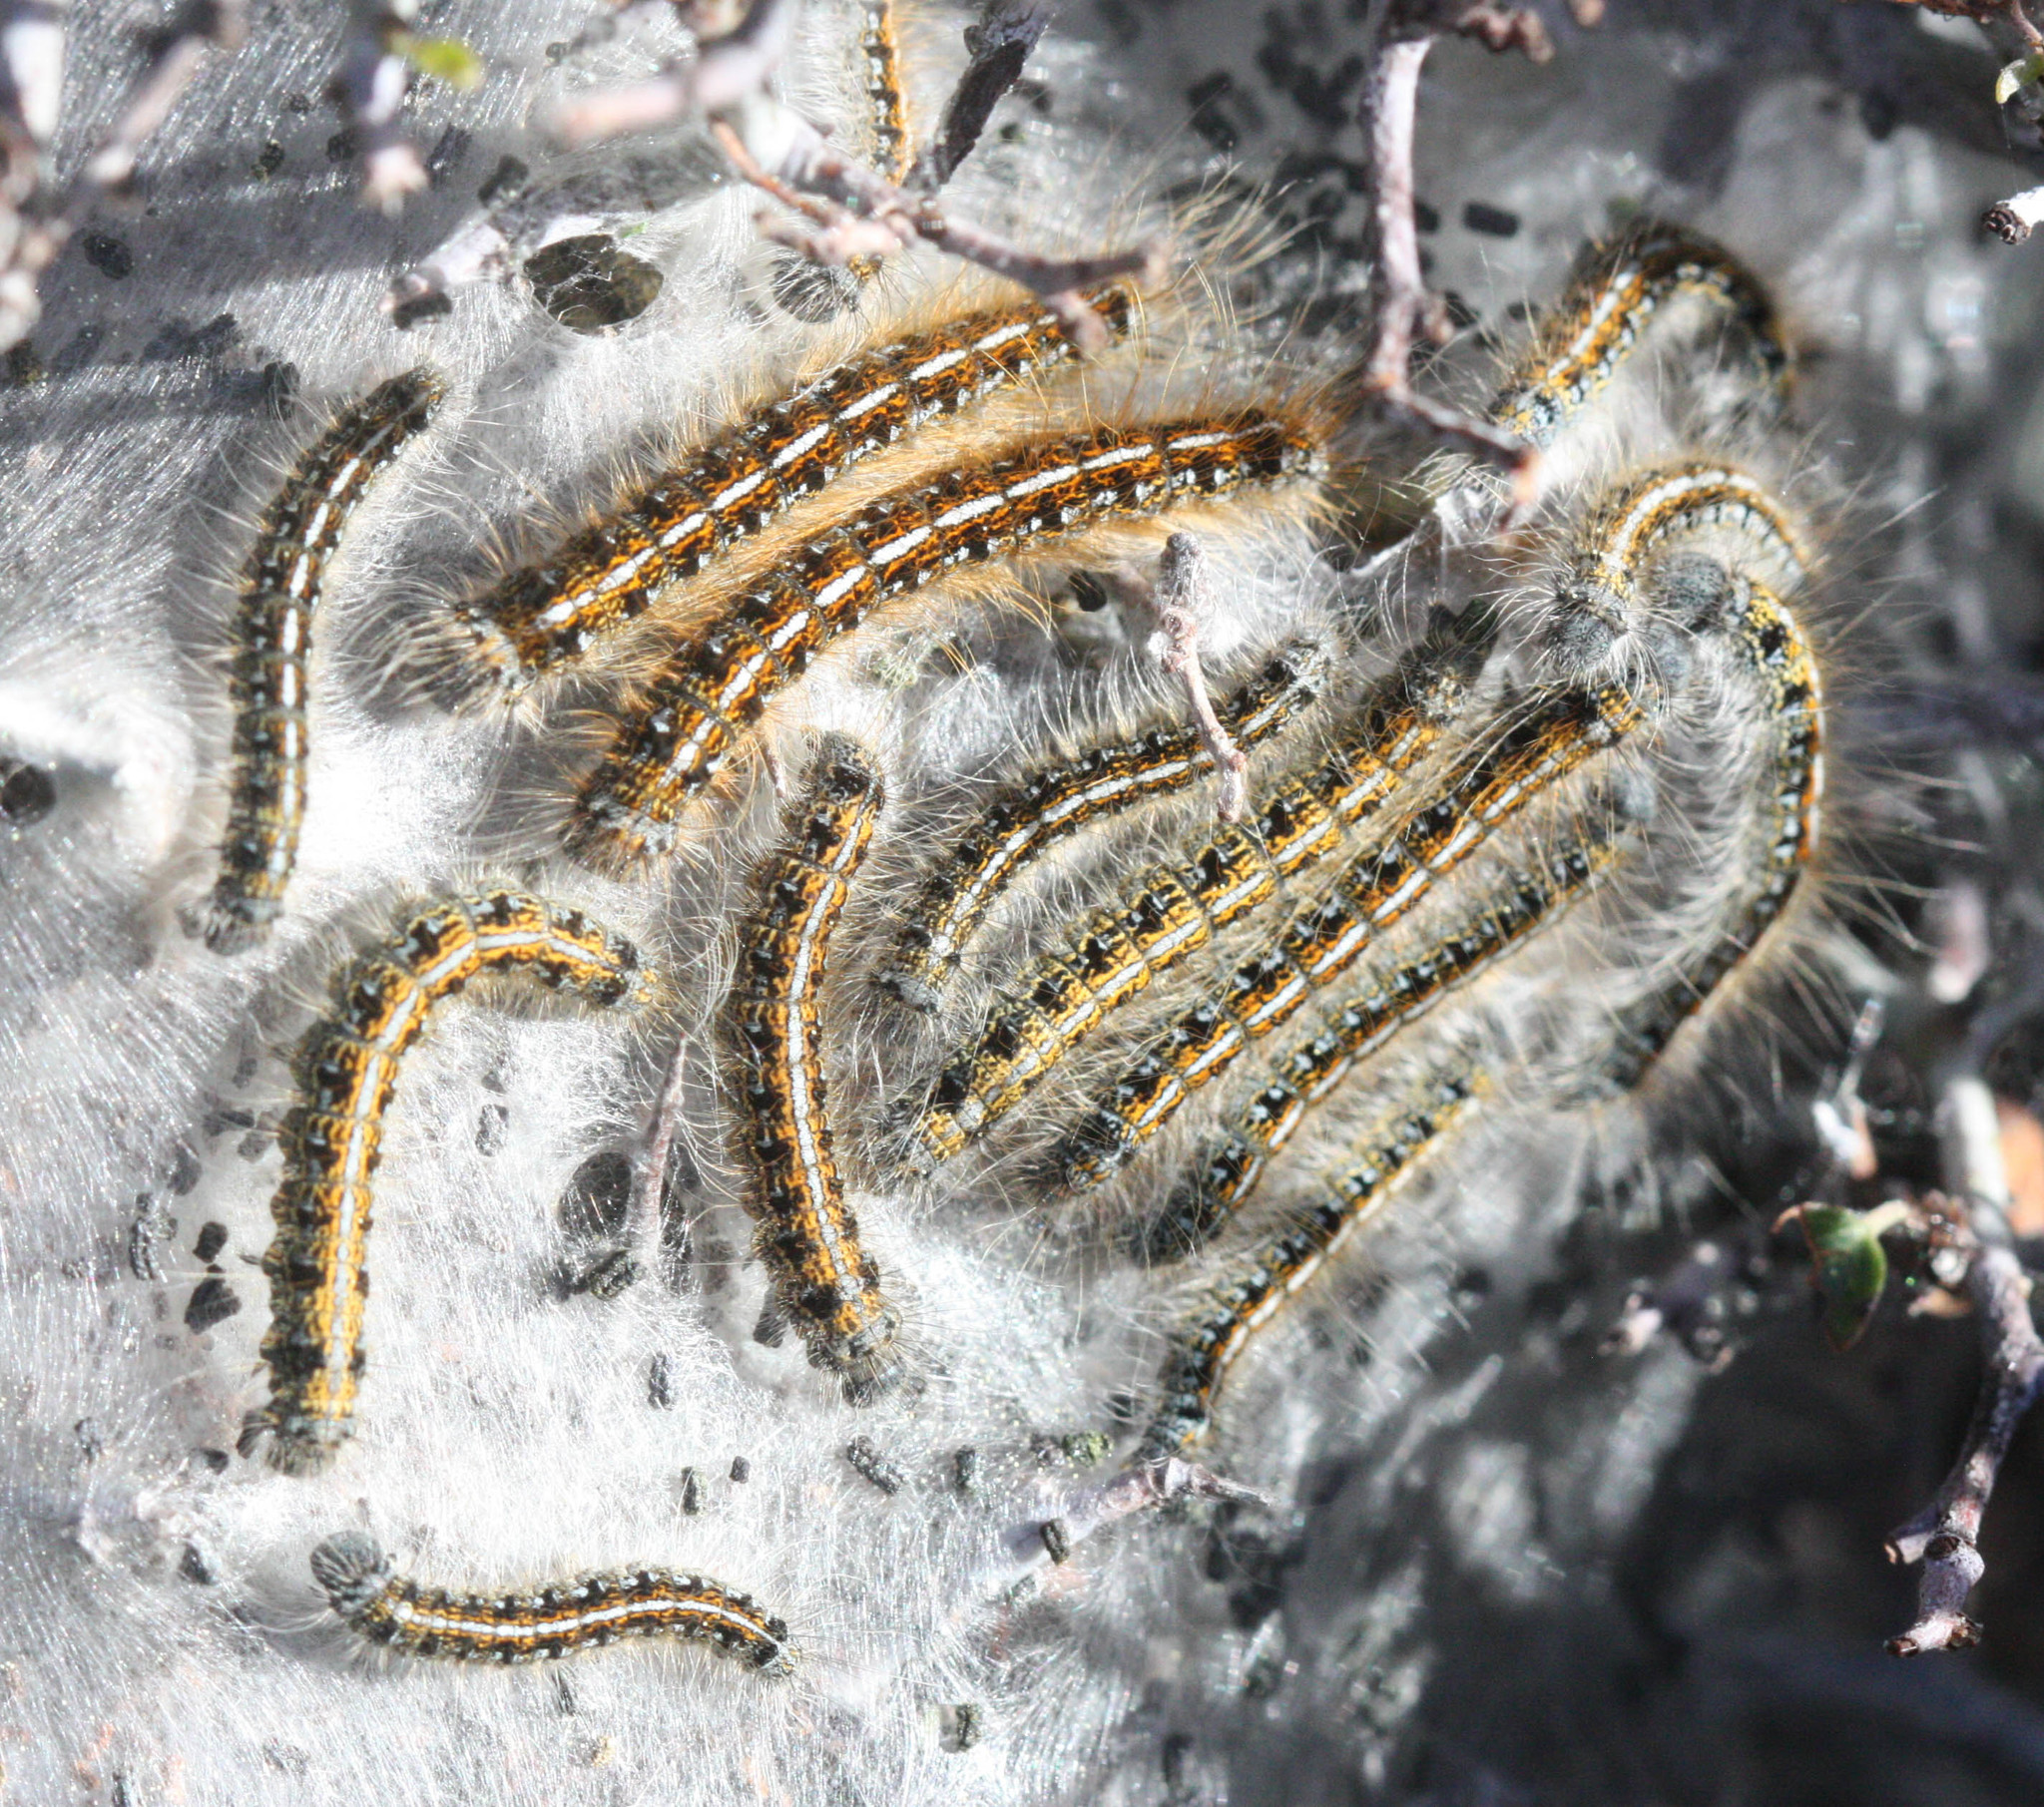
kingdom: Animalia
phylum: Arthropoda
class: Insecta
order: Lepidoptera
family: Lasiocampidae
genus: Malacosoma
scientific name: Malacosoma californica
